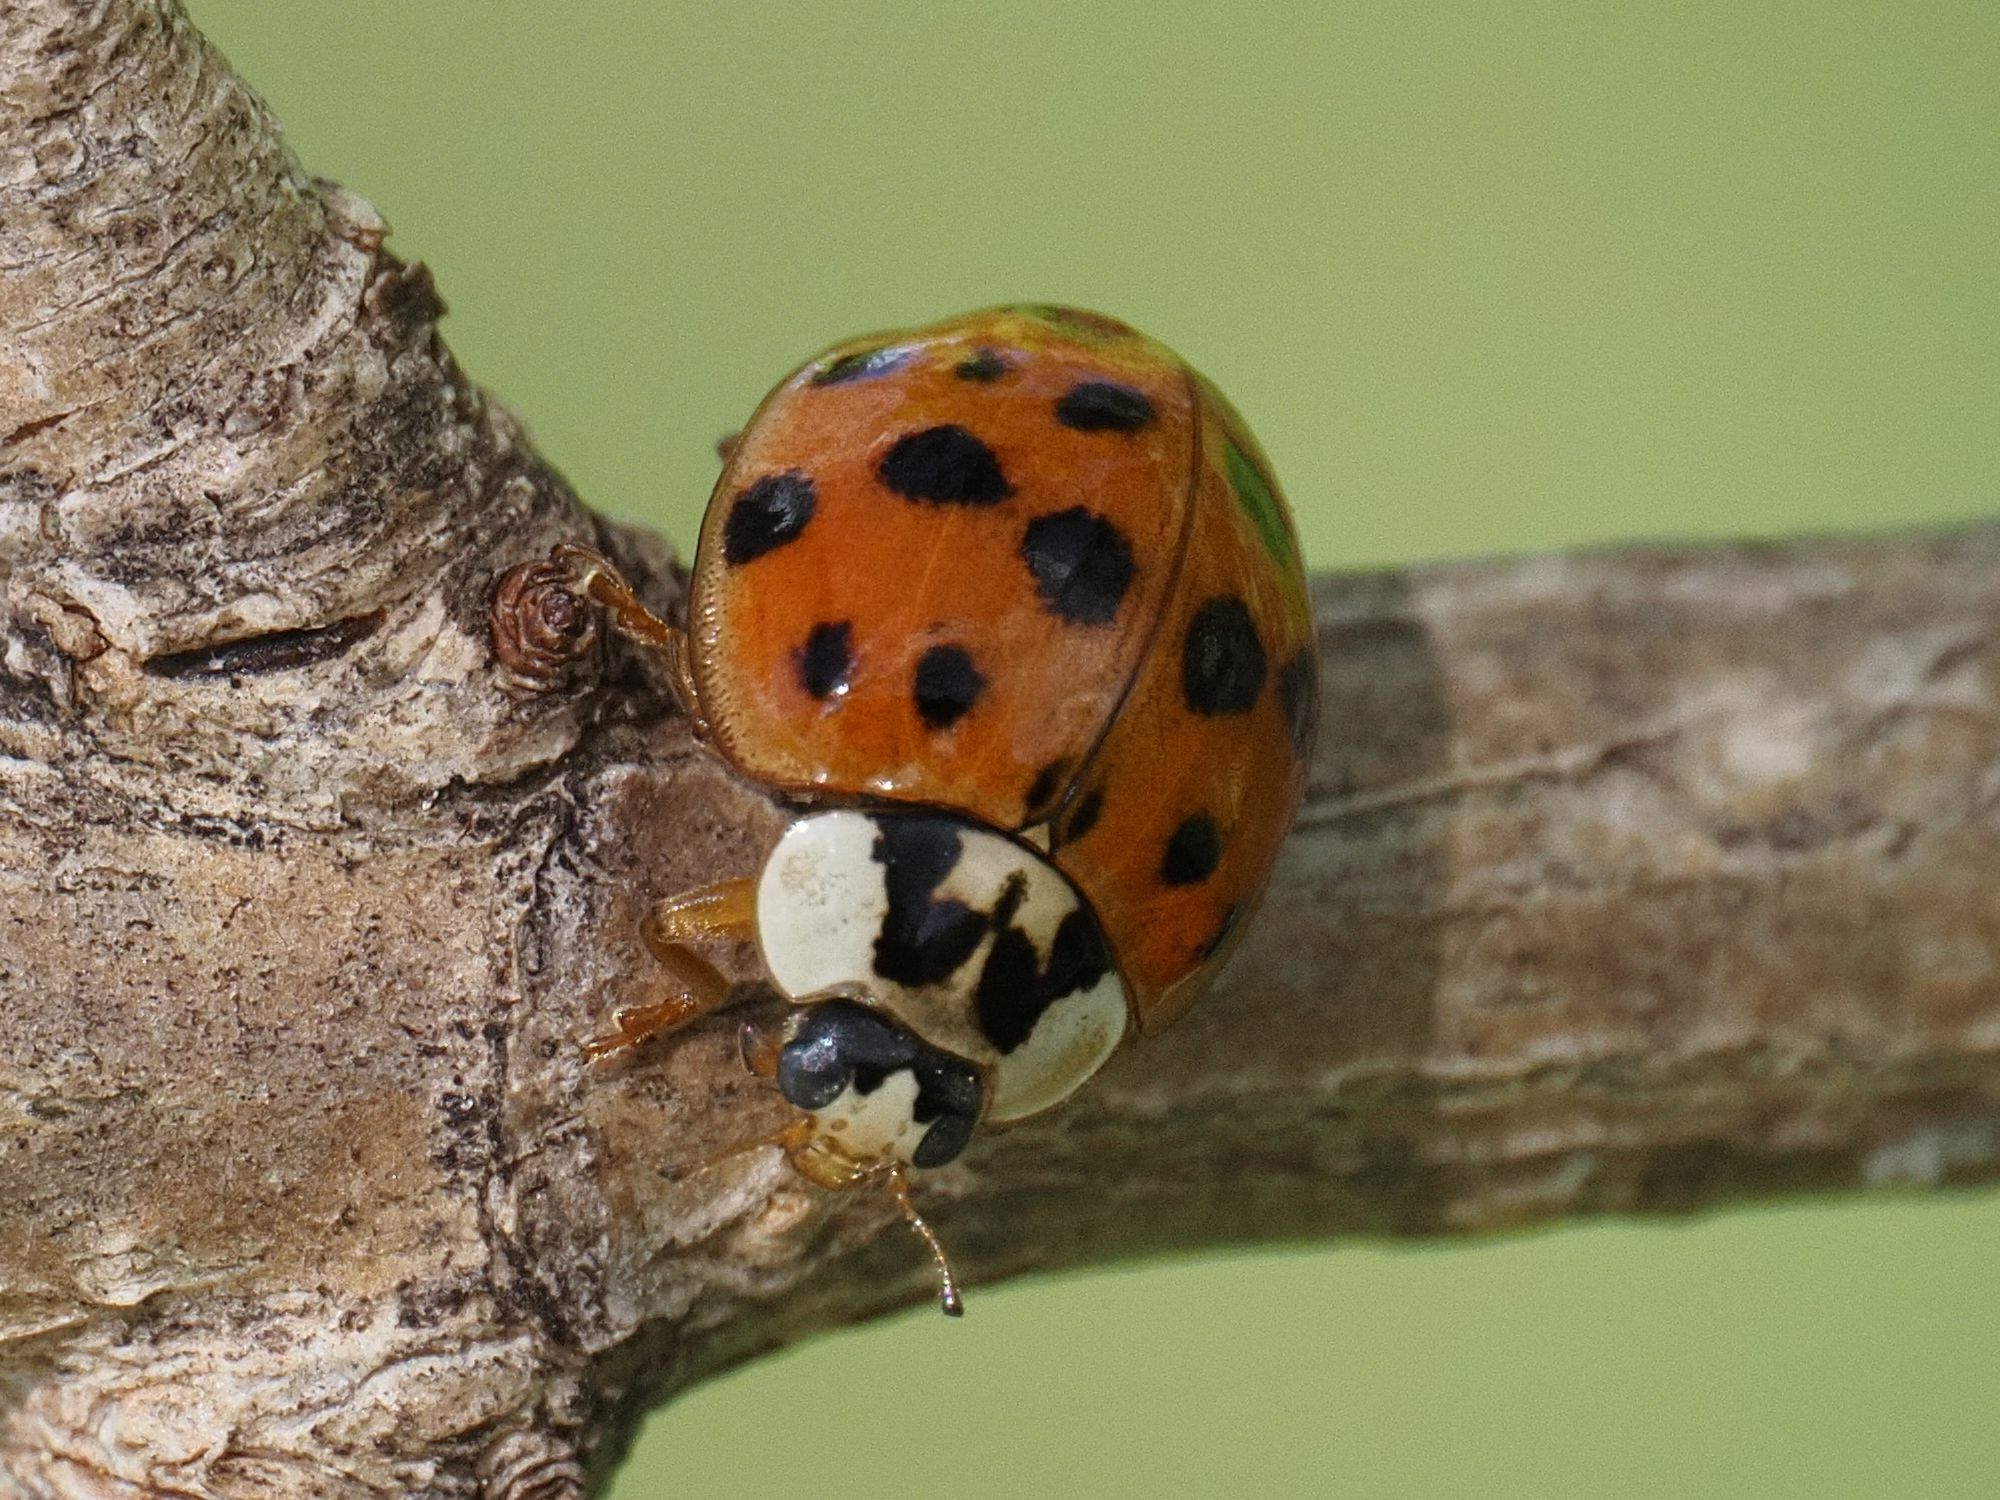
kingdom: Animalia
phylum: Arthropoda
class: Insecta
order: Coleoptera
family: Coccinellidae
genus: Harmonia
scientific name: Harmonia axyridis
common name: Harlequin ladybird
